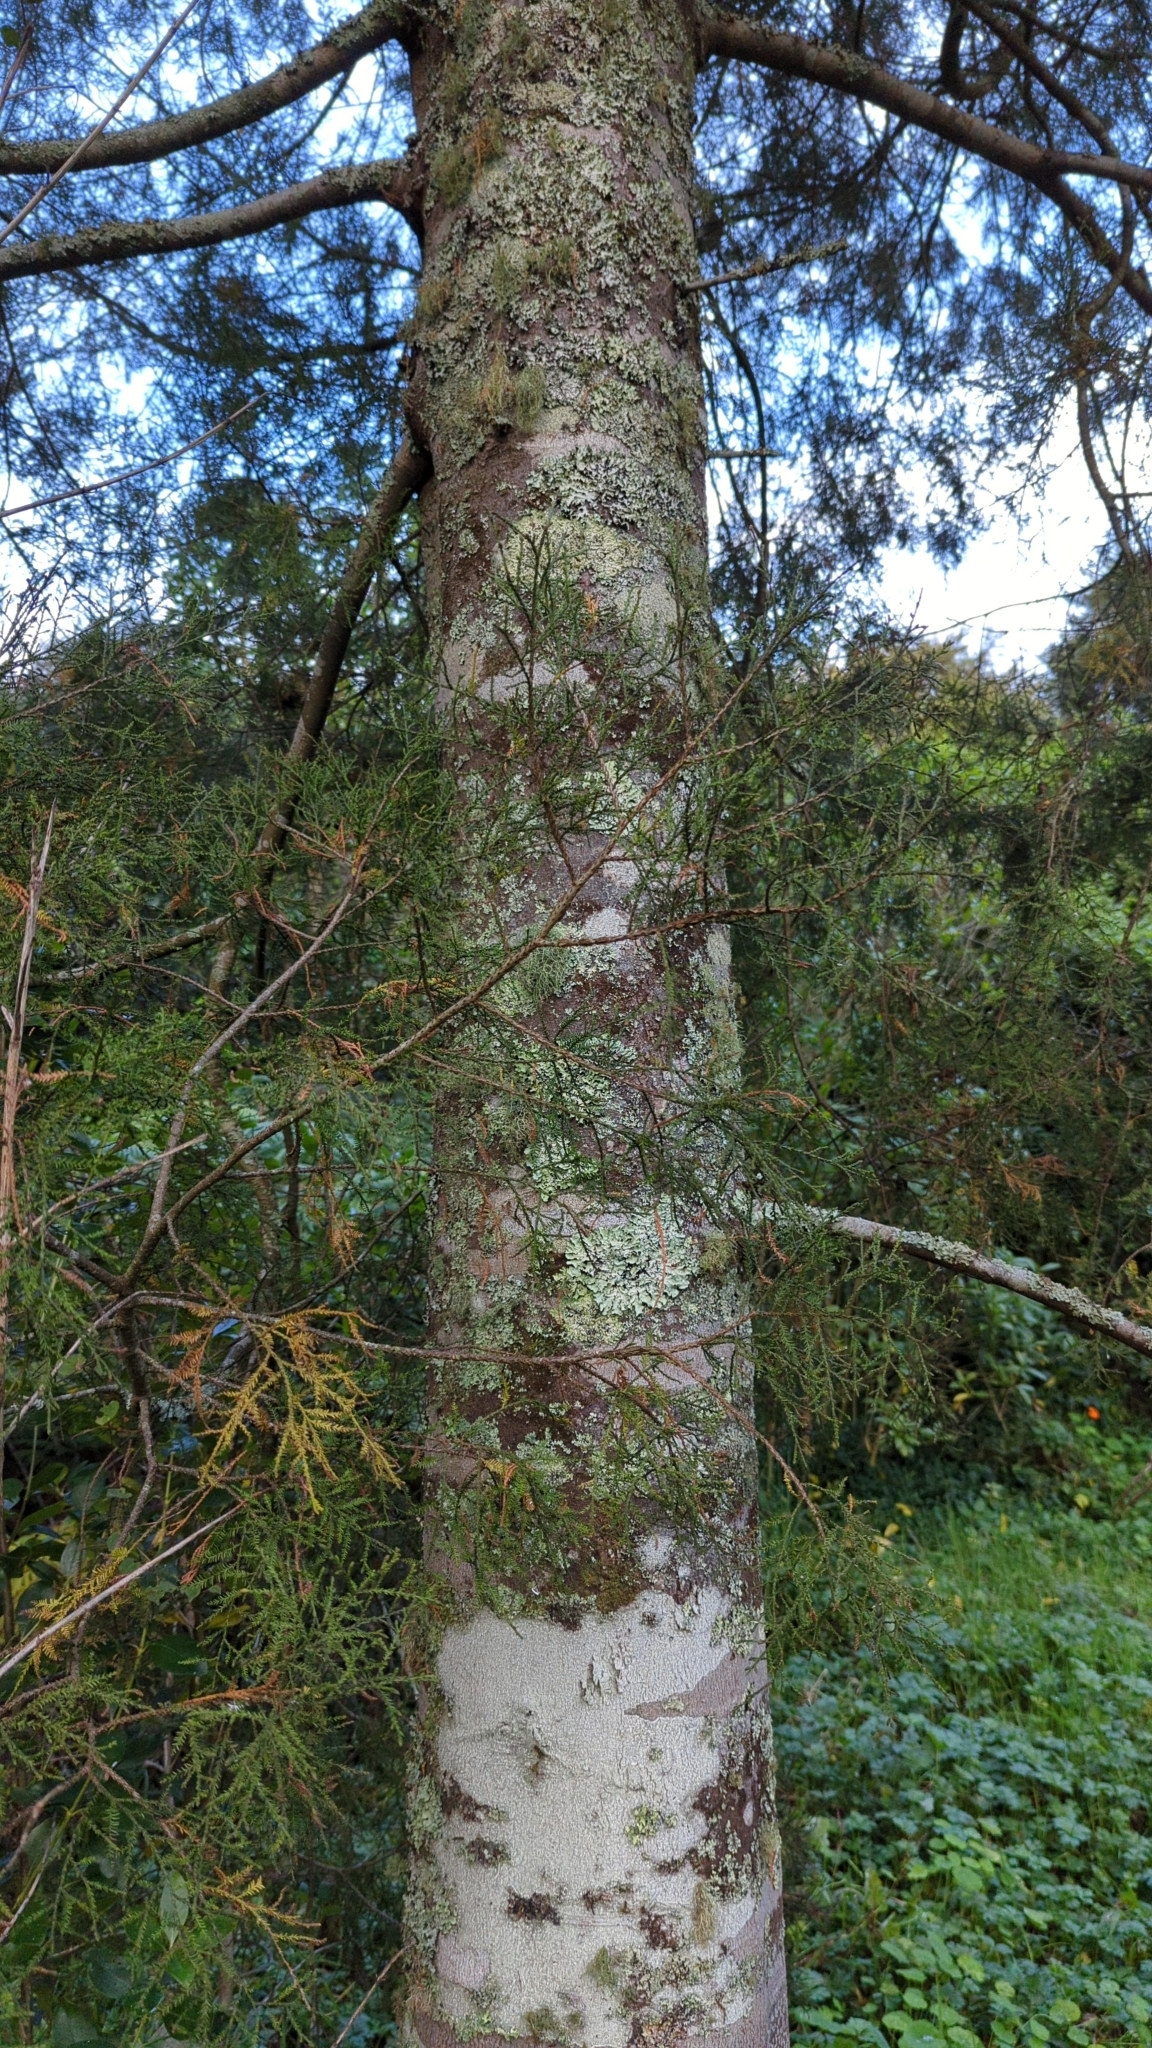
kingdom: Plantae
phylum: Tracheophyta
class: Pinopsida
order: Pinales
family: Podocarpaceae
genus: Dacrycarpus
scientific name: Dacrycarpus dacrydioides
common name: White pine
